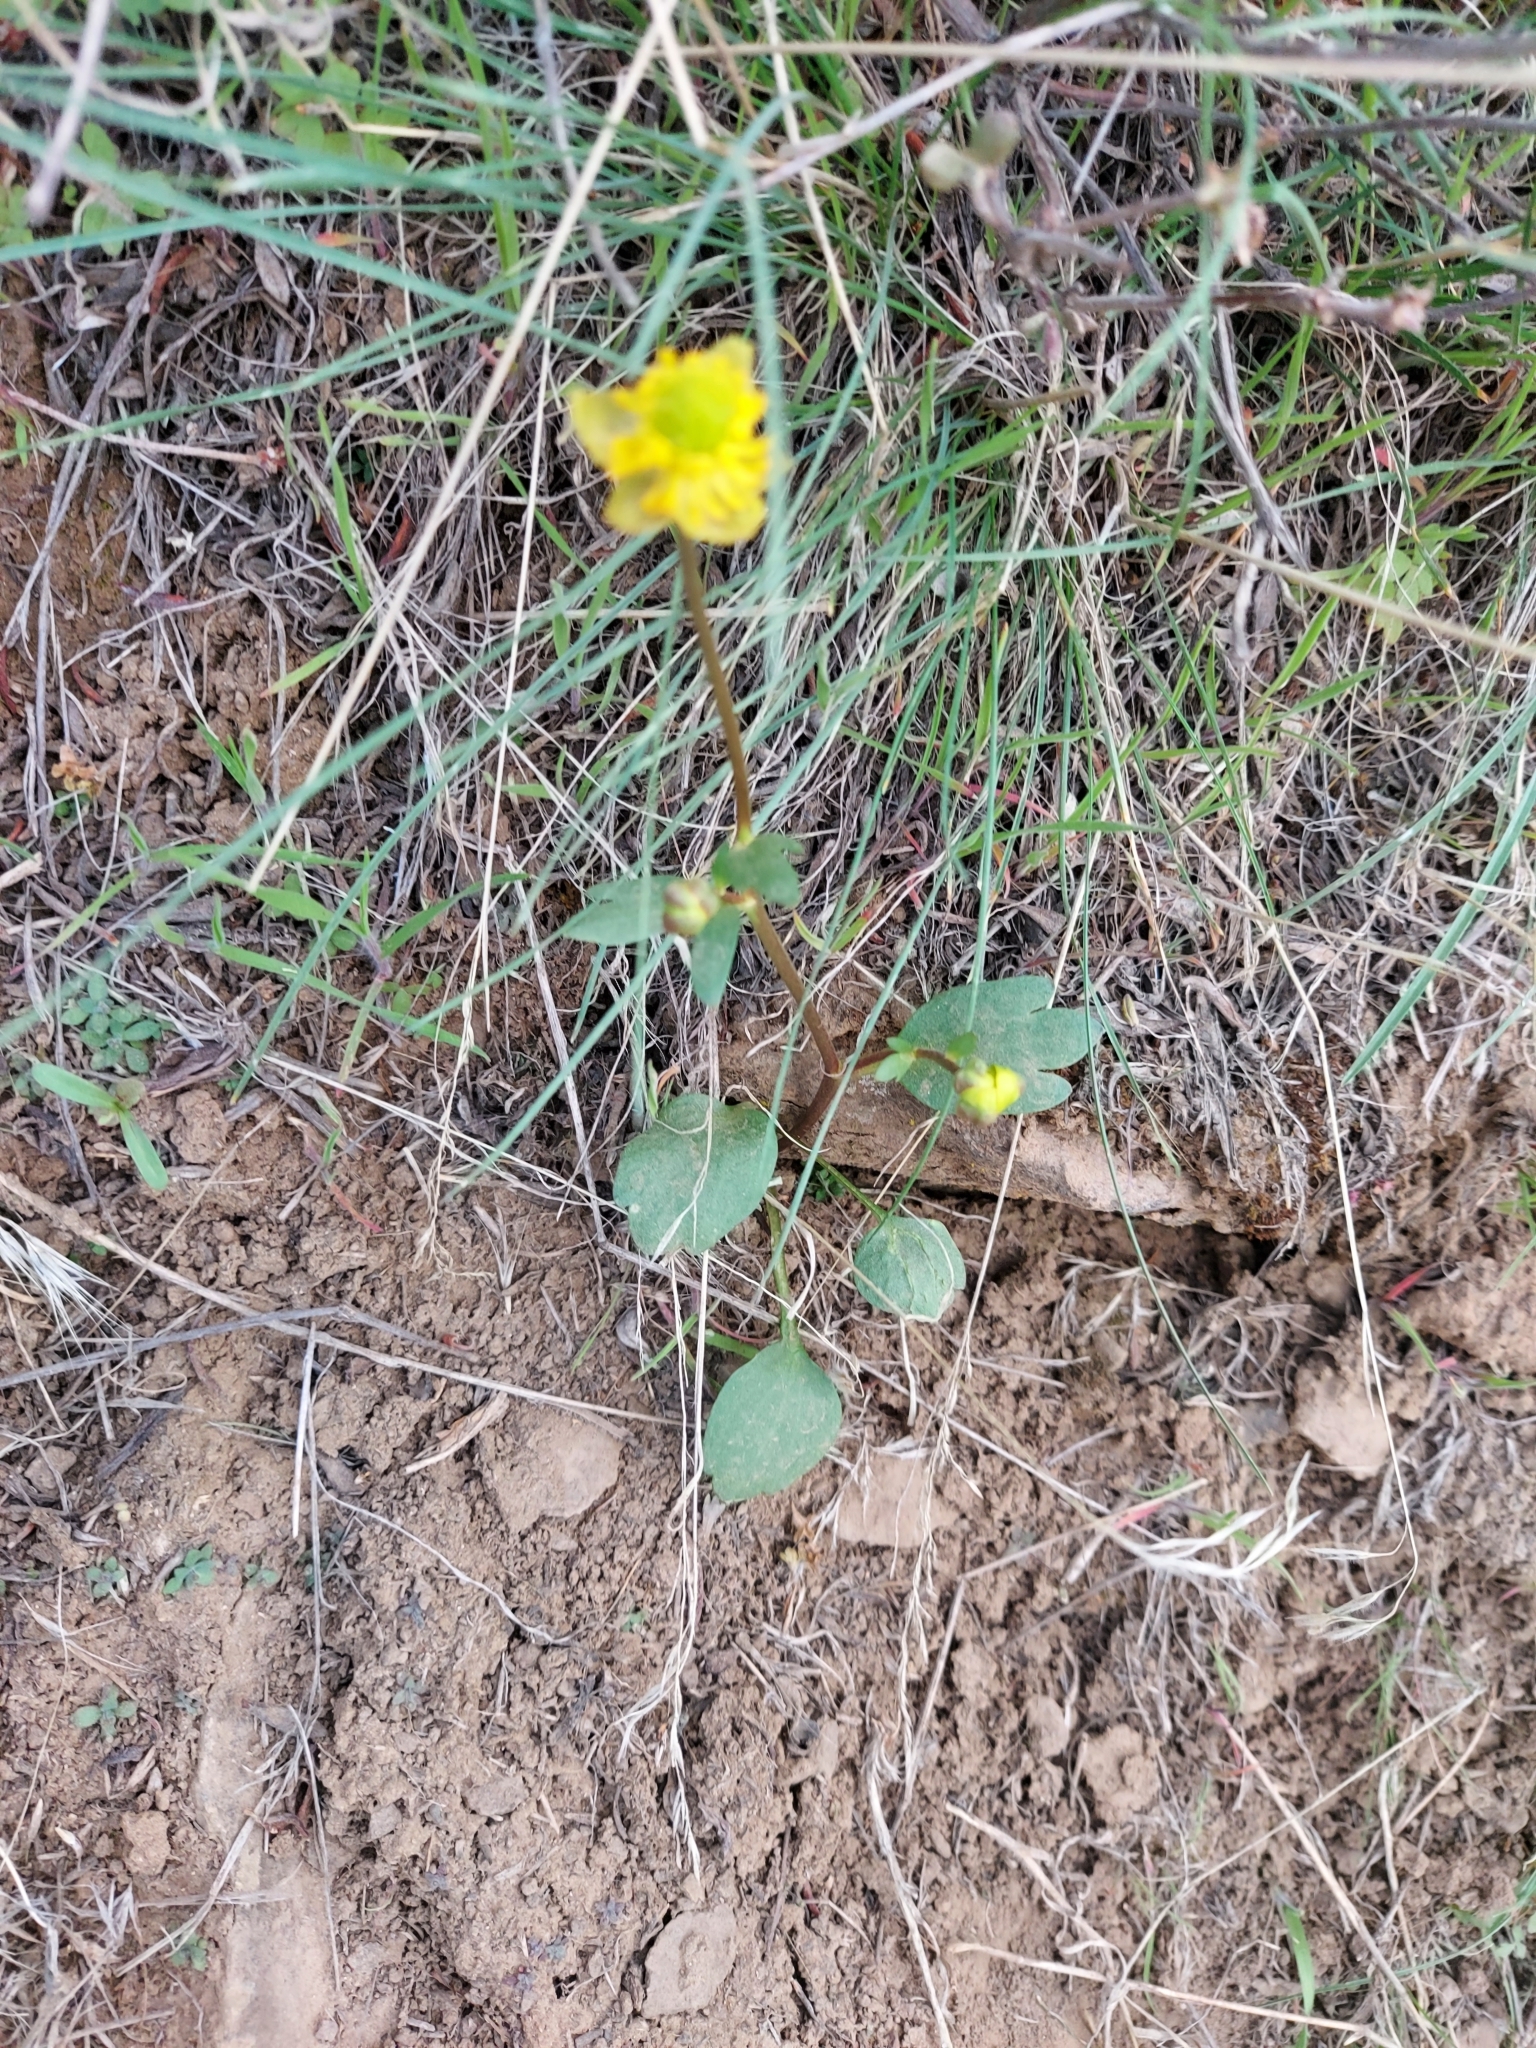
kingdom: Plantae
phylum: Tracheophyta
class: Magnoliopsida
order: Ranunculales
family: Ranunculaceae
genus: Ranunculus
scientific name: Ranunculus glaberrimus
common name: Sagebrush buttercup
